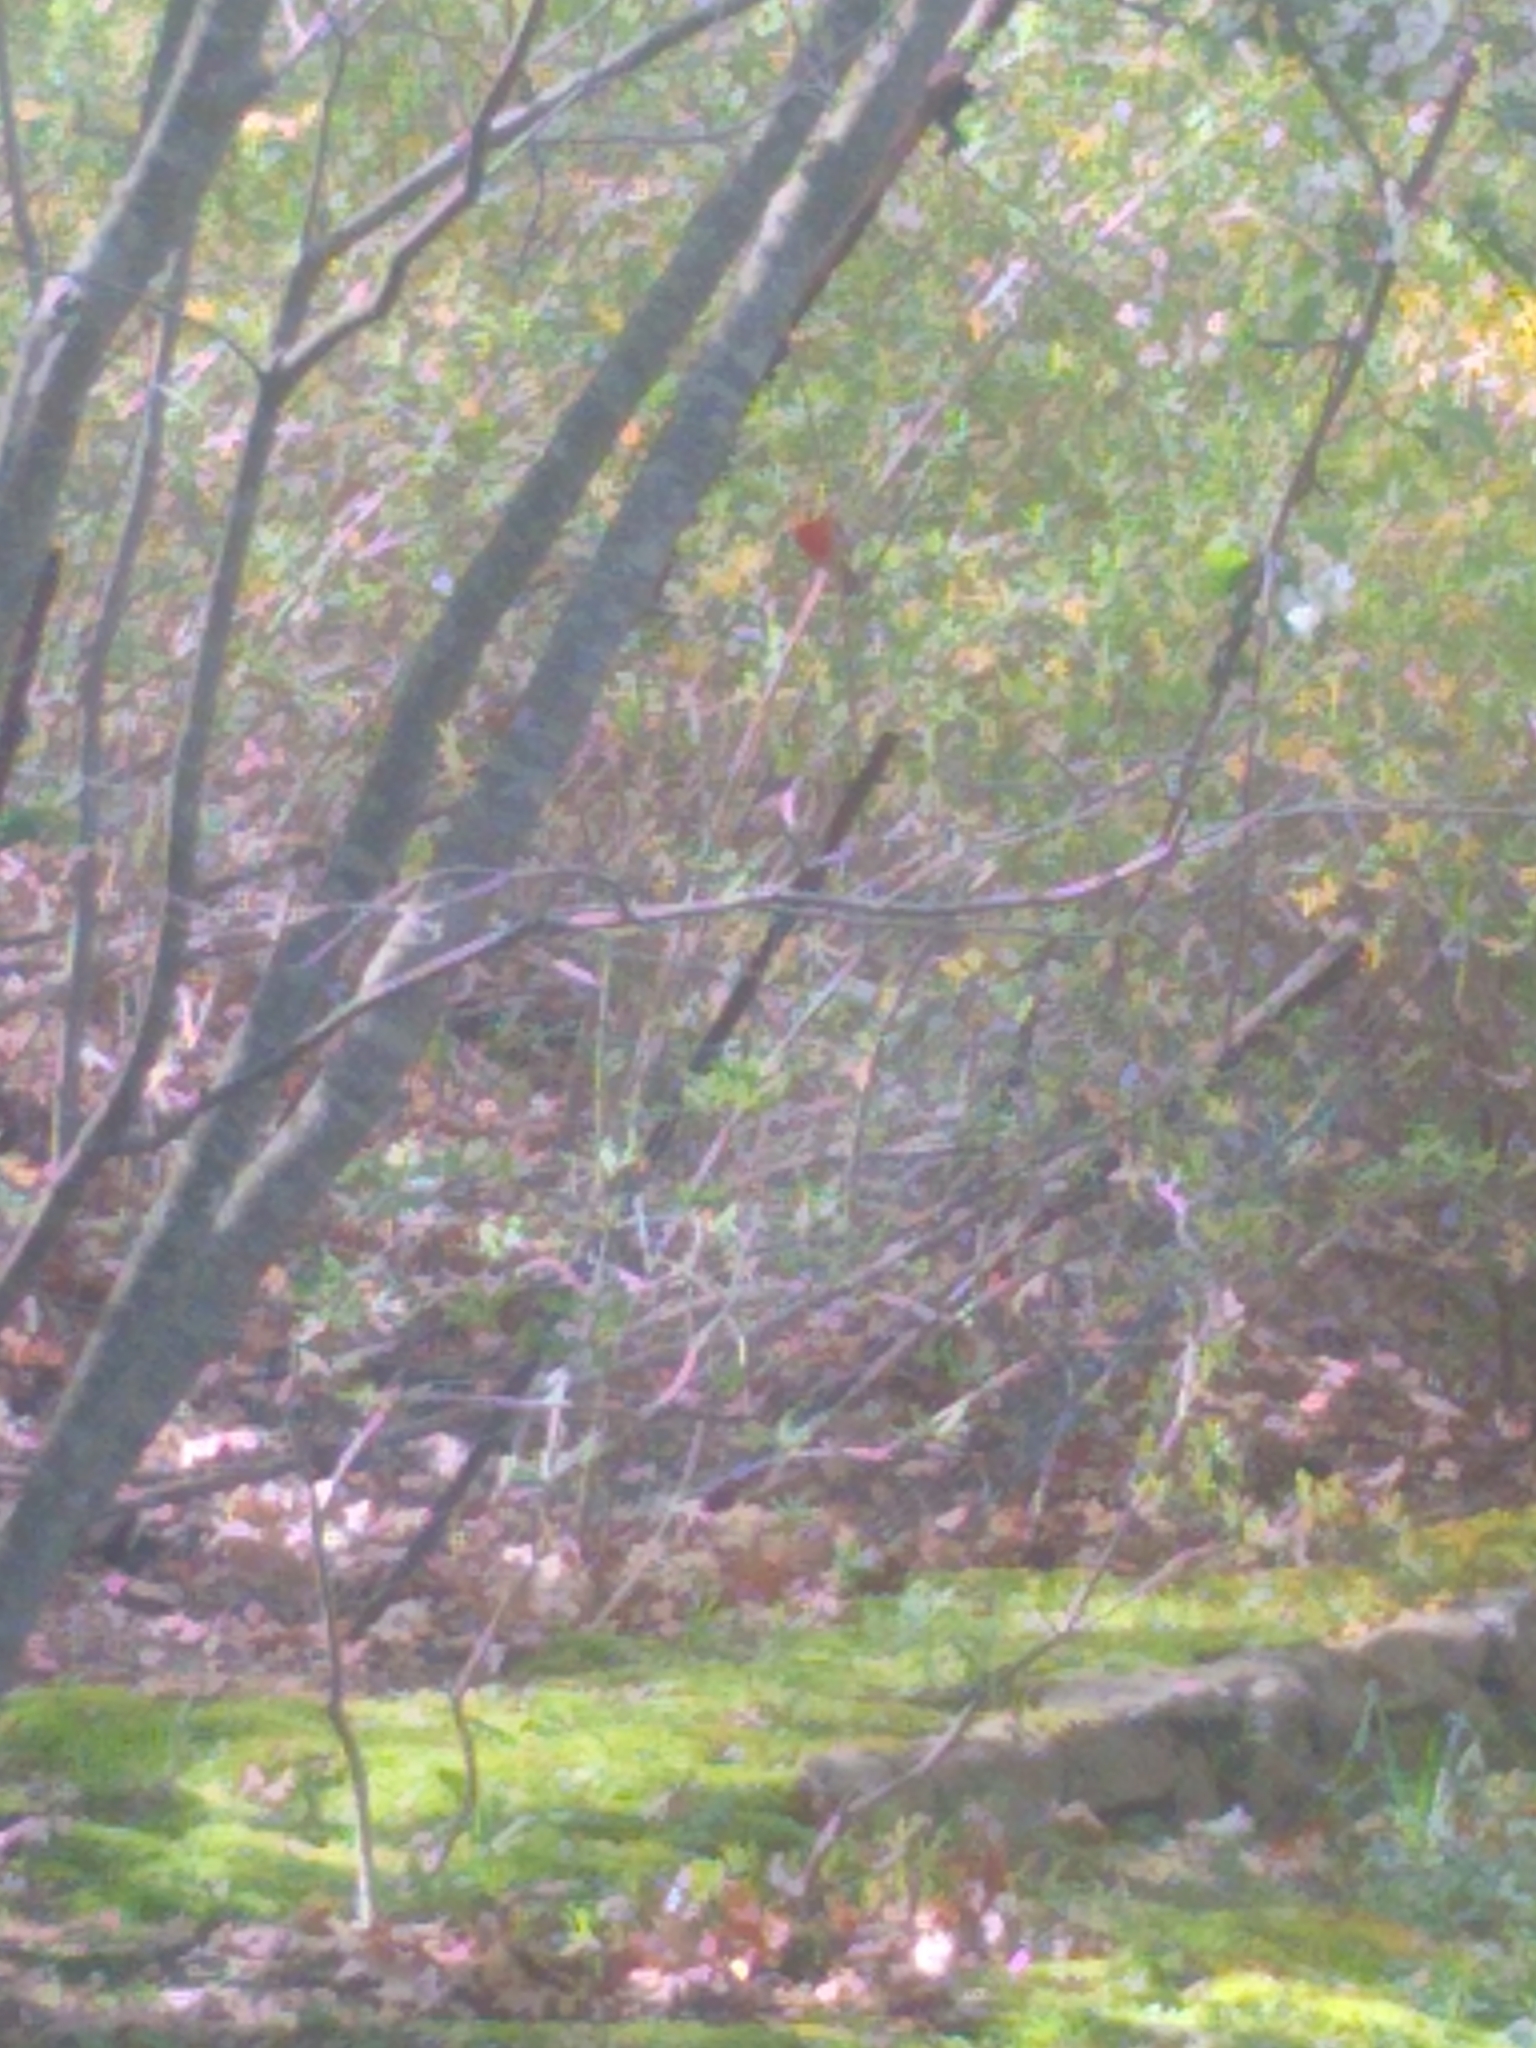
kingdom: Animalia
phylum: Chordata
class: Aves
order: Passeriformes
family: Cardinalidae
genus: Cardinalis
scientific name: Cardinalis cardinalis
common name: Northern cardinal
